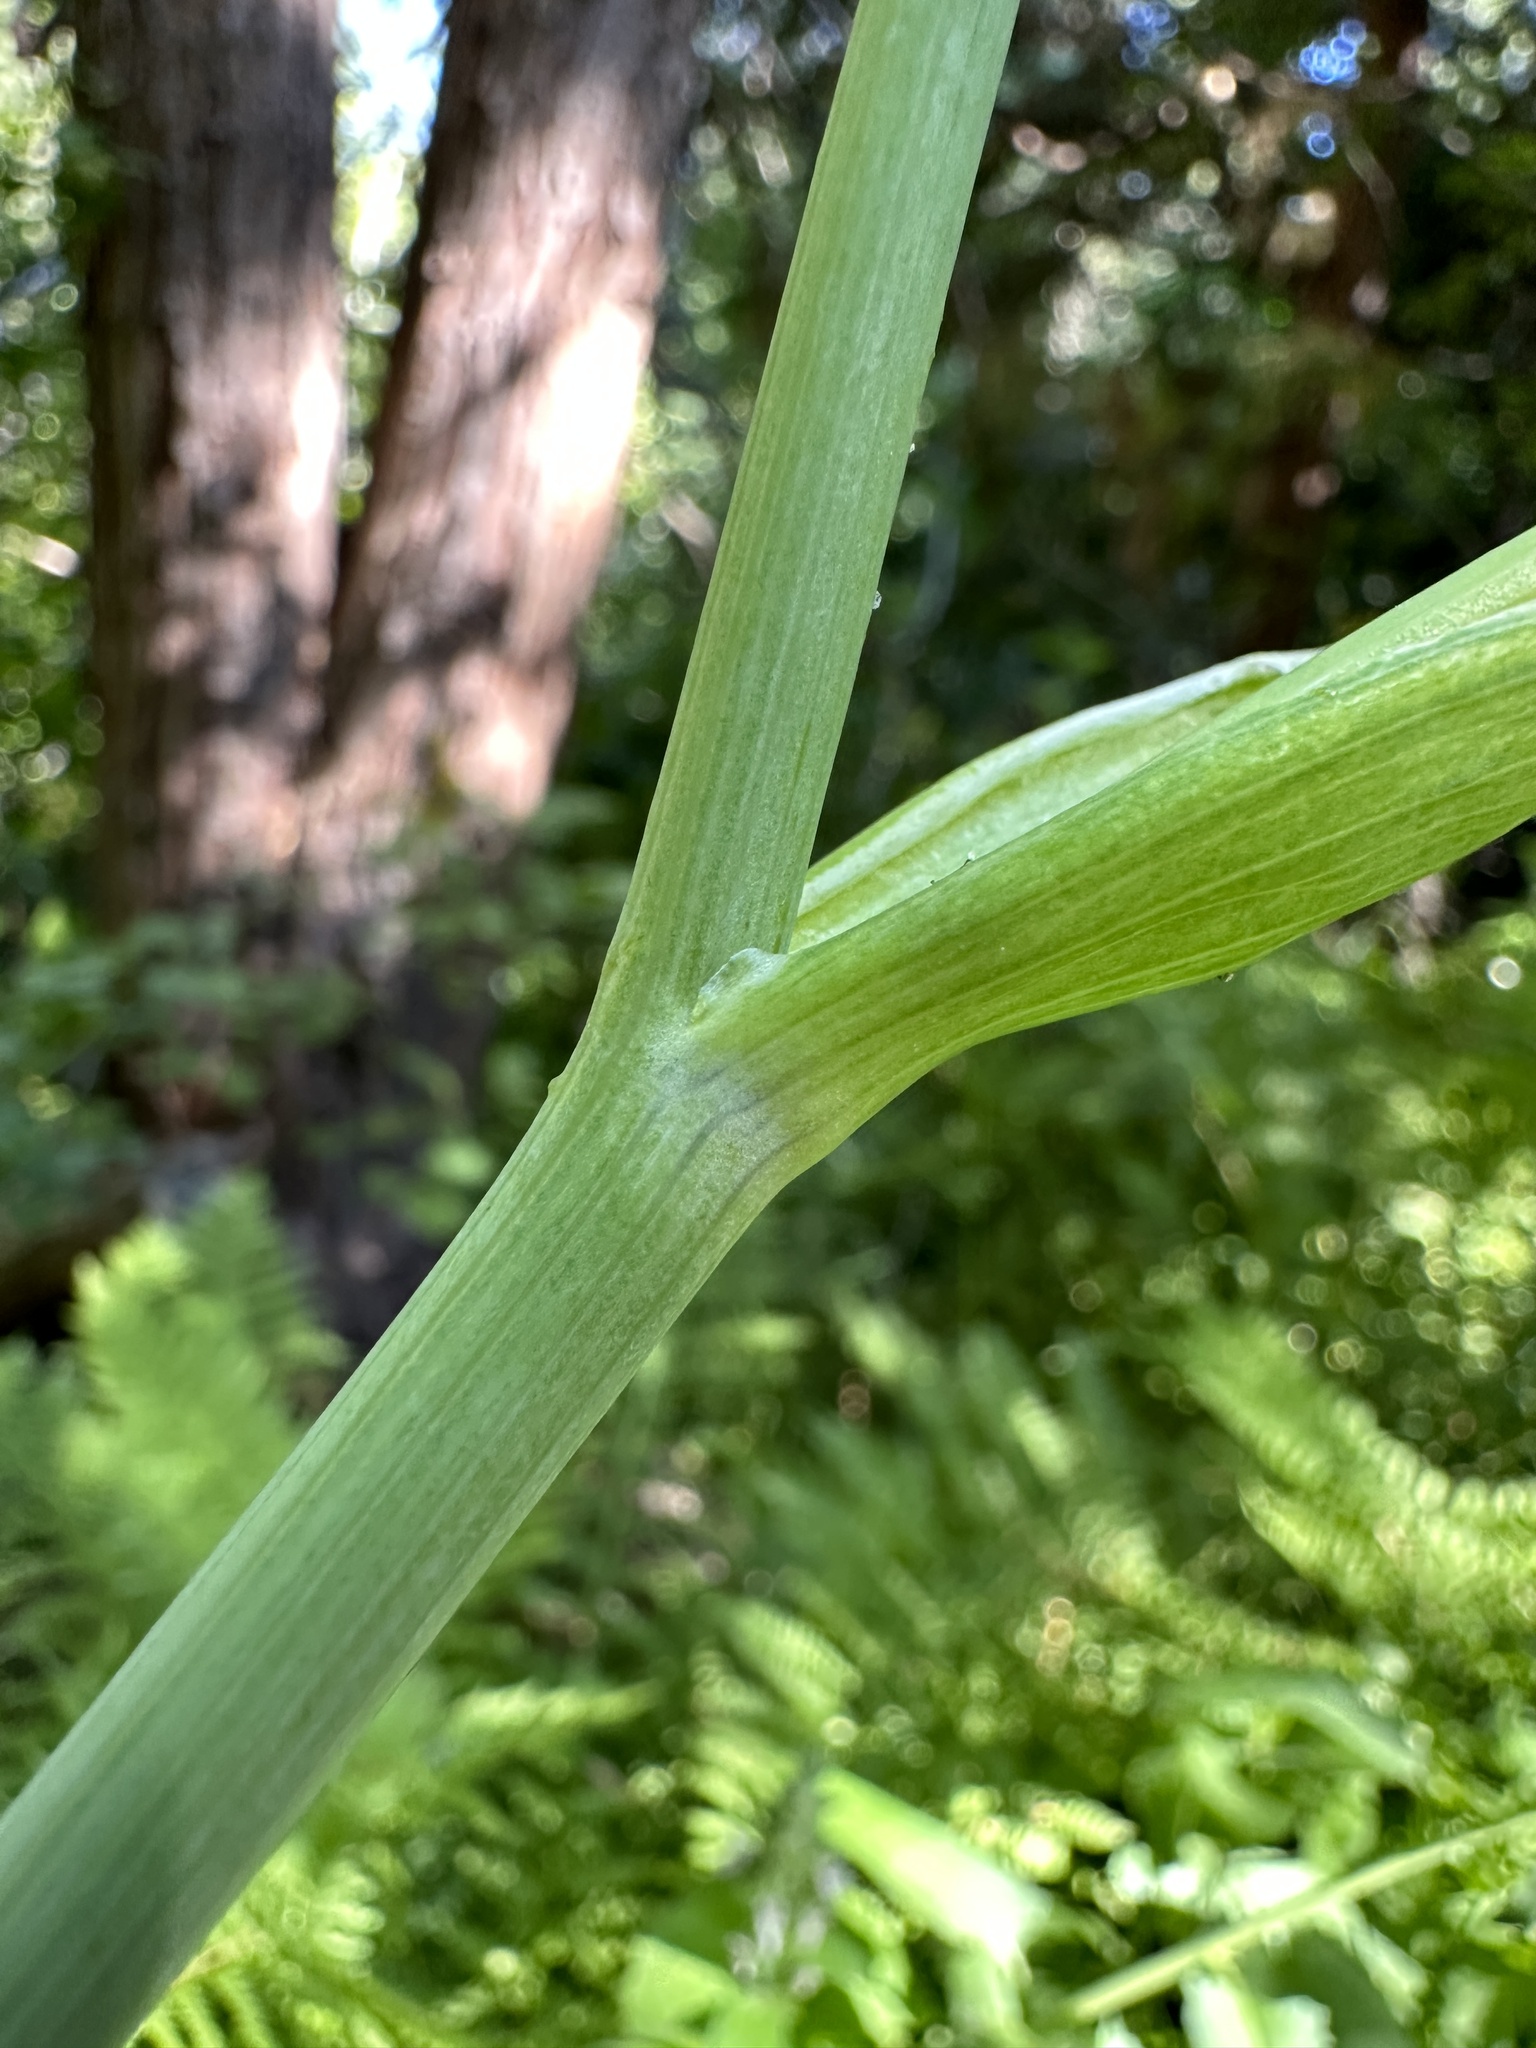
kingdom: Plantae
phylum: Tracheophyta
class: Magnoliopsida
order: Apiales
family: Apiaceae
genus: Angelica
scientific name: Angelica capitellata
